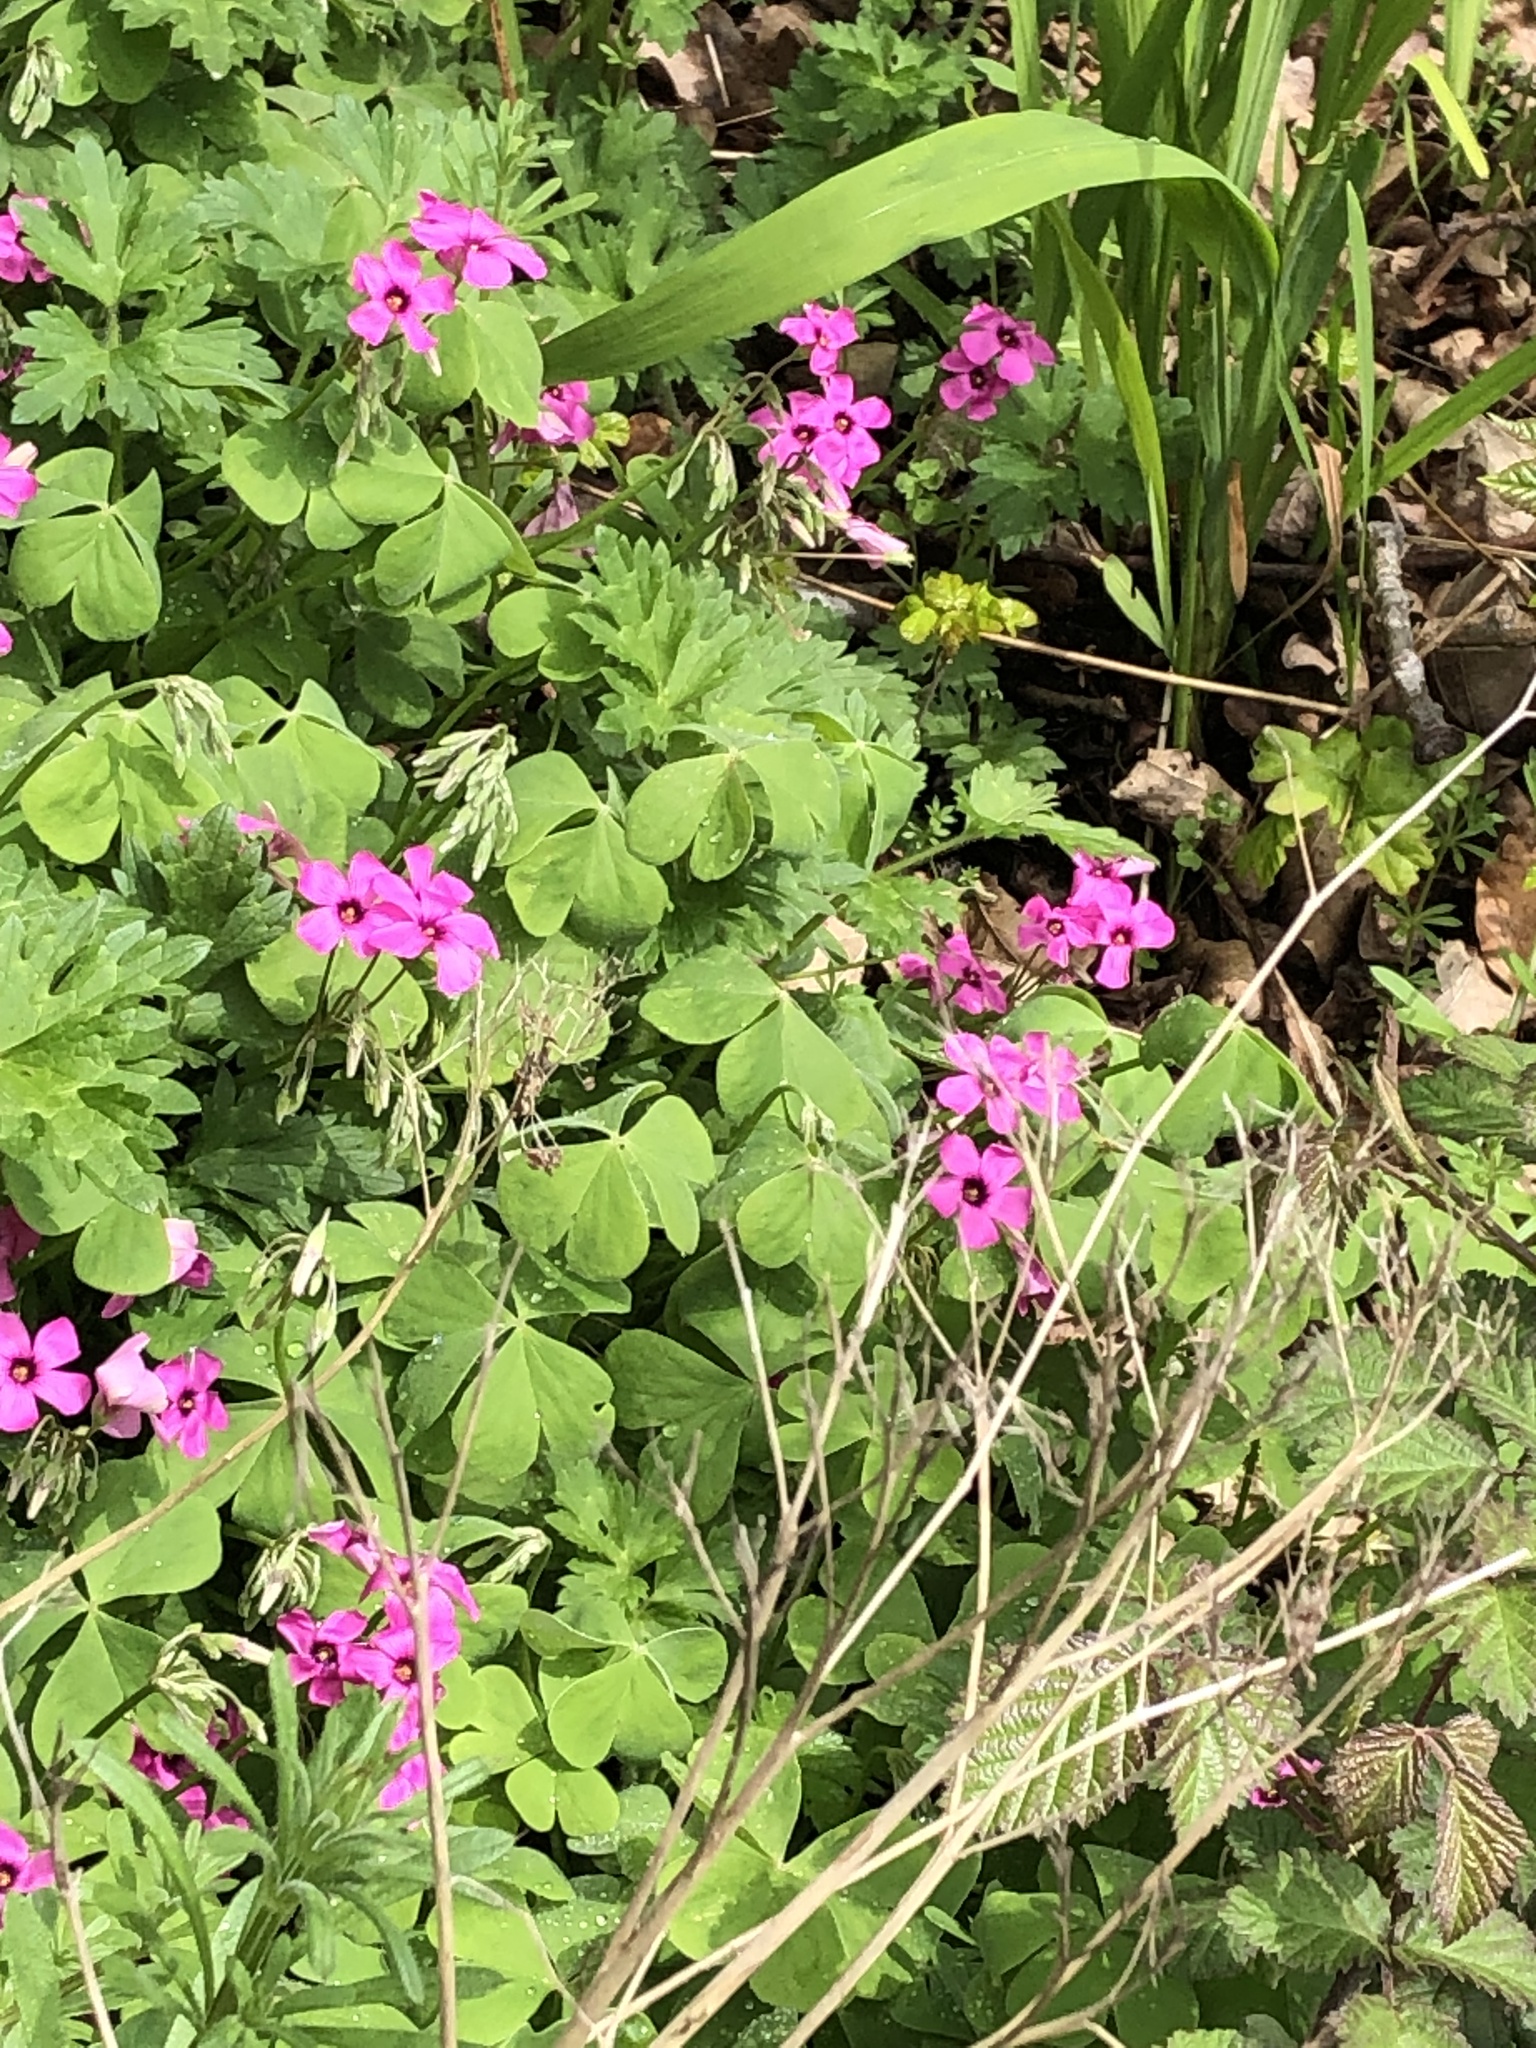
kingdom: Plantae
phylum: Tracheophyta
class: Magnoliopsida
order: Oxalidales
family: Oxalidaceae
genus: Oxalis
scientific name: Oxalis articulata
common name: Pink-sorrel
